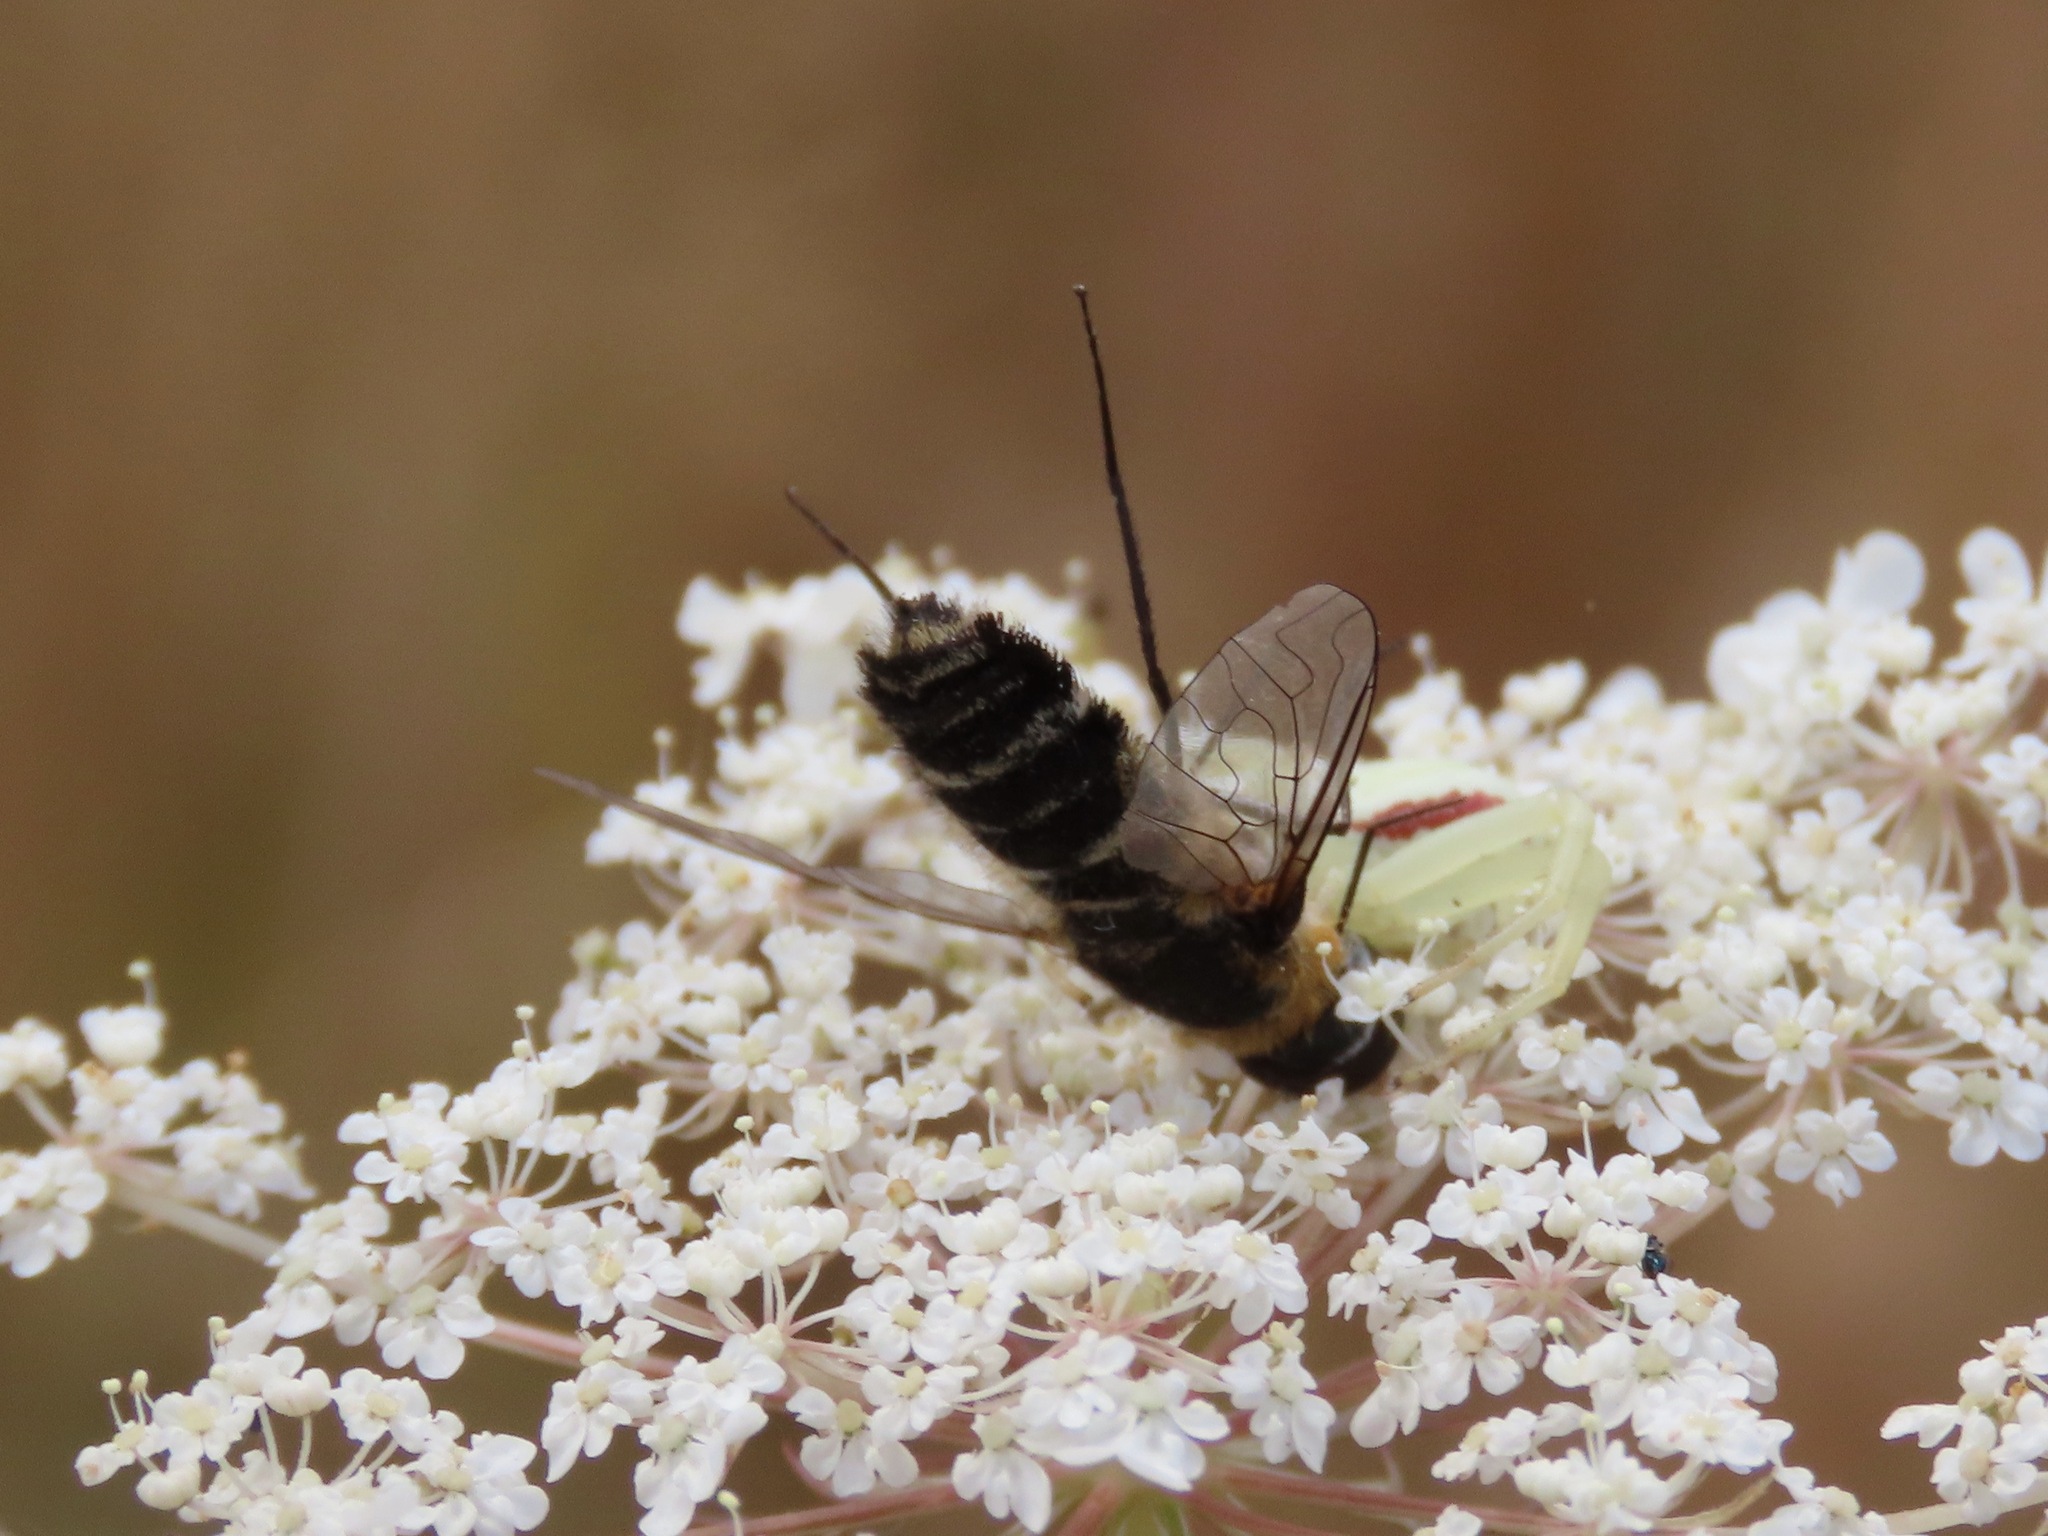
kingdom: Animalia
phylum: Arthropoda
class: Arachnida
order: Araneae
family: Thomisidae
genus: Misumena
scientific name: Misumena vatia
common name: Goldenrod crab spider
